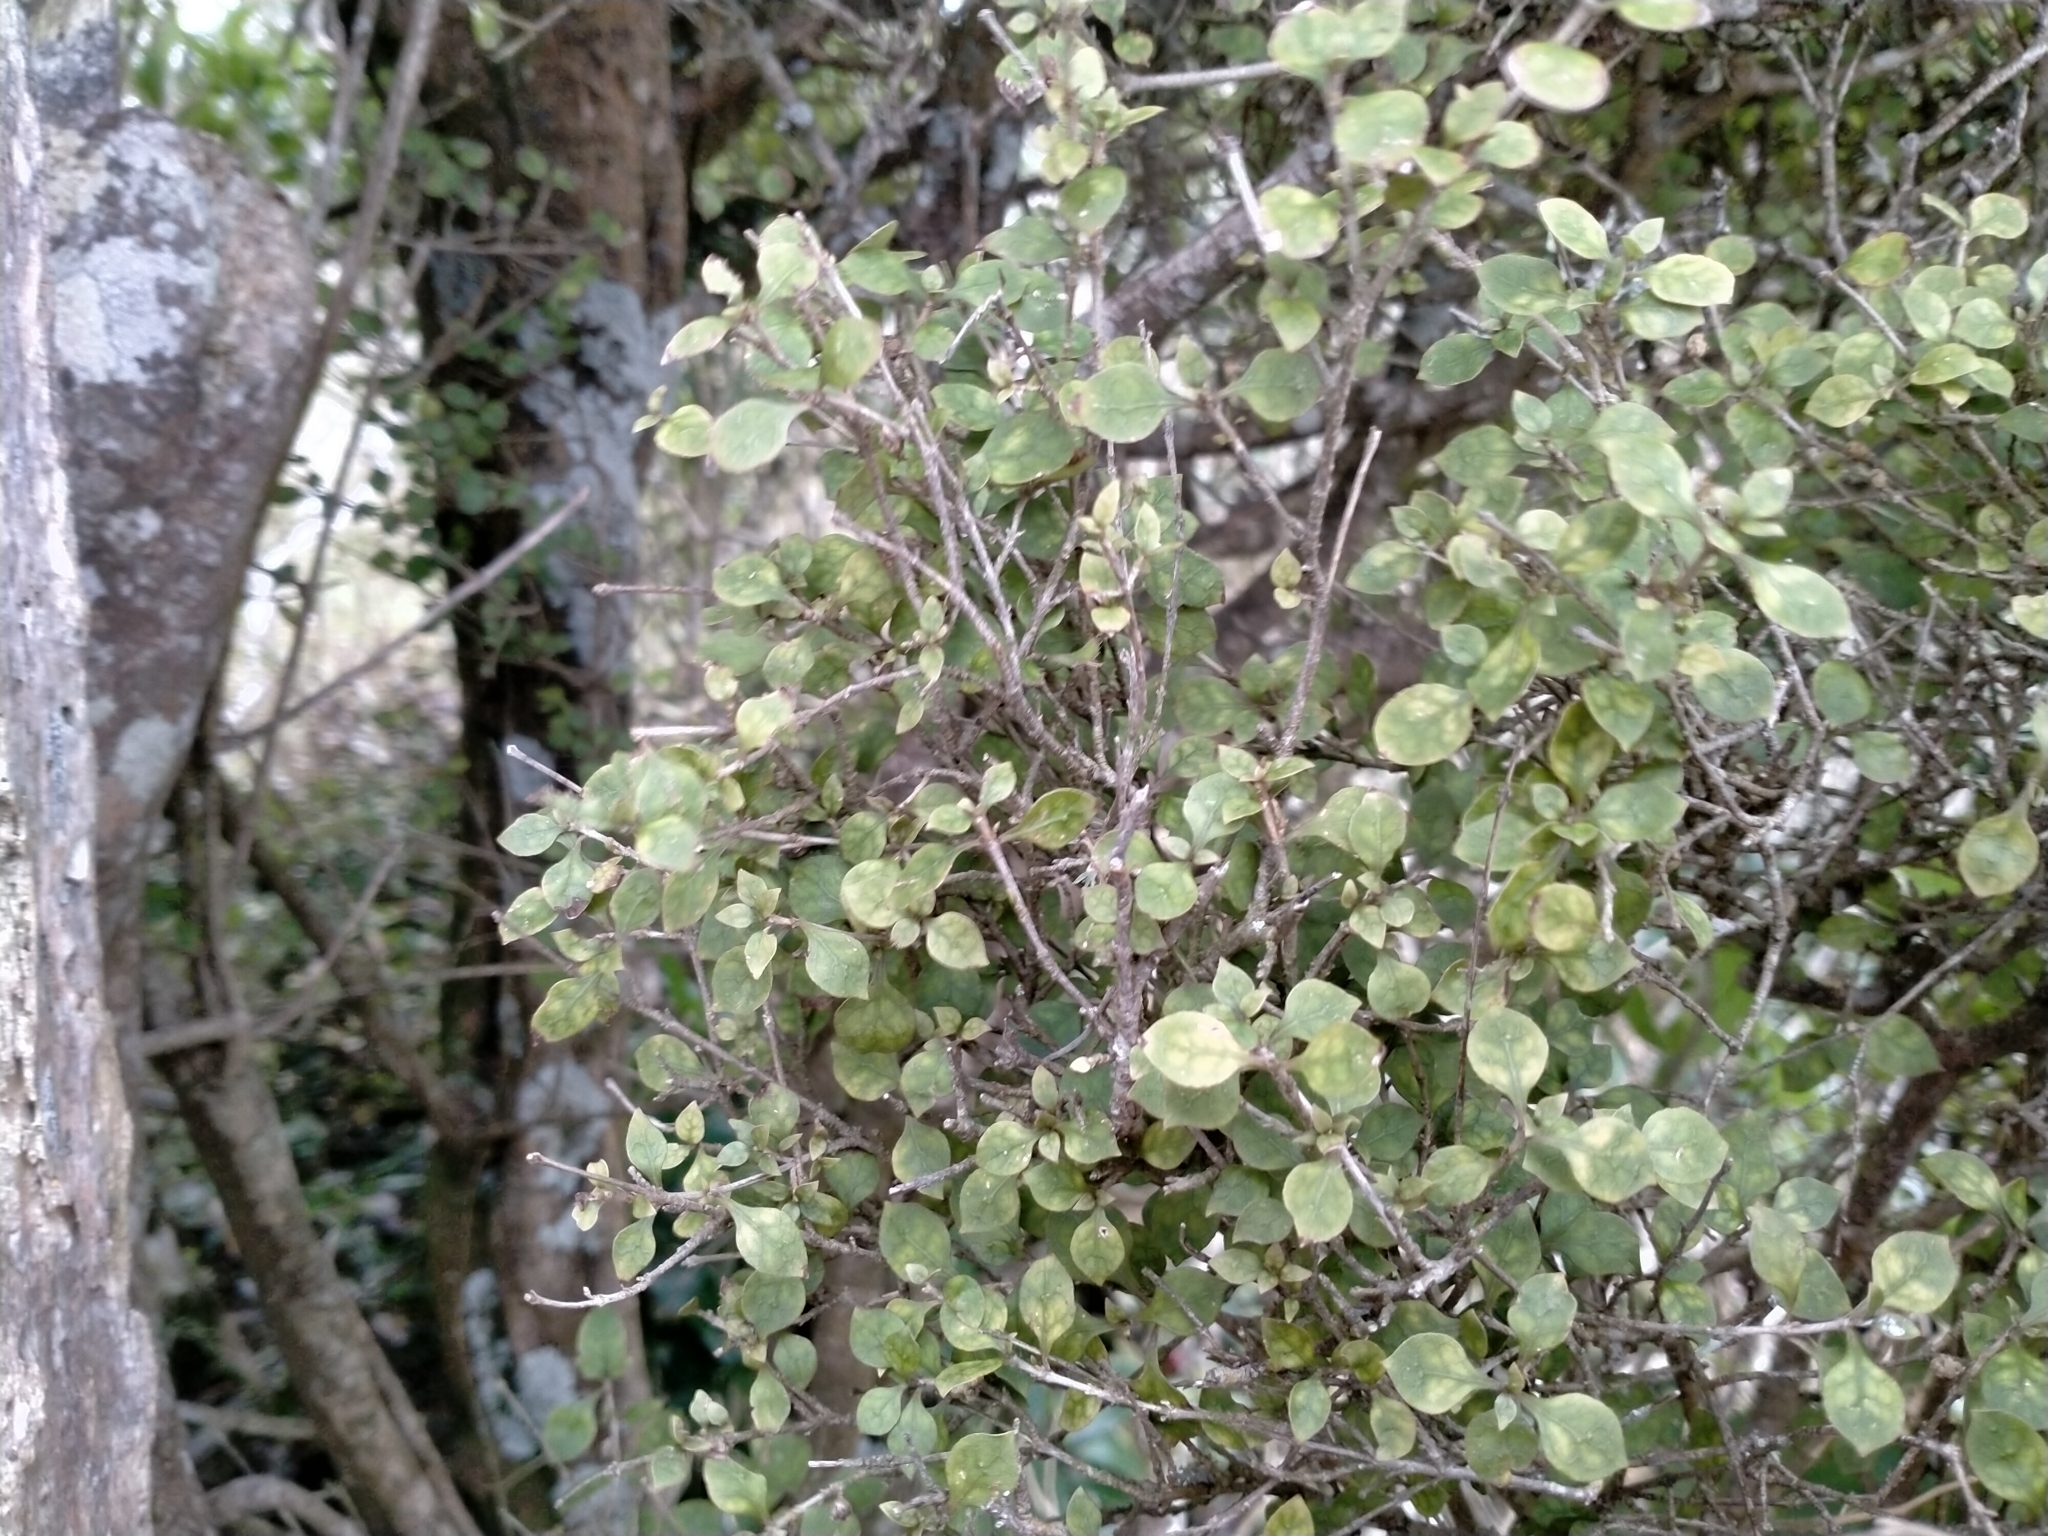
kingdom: Plantae
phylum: Tracheophyta
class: Magnoliopsida
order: Gentianales
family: Rubiaceae
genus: Coprosma
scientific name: Coprosma areolata
